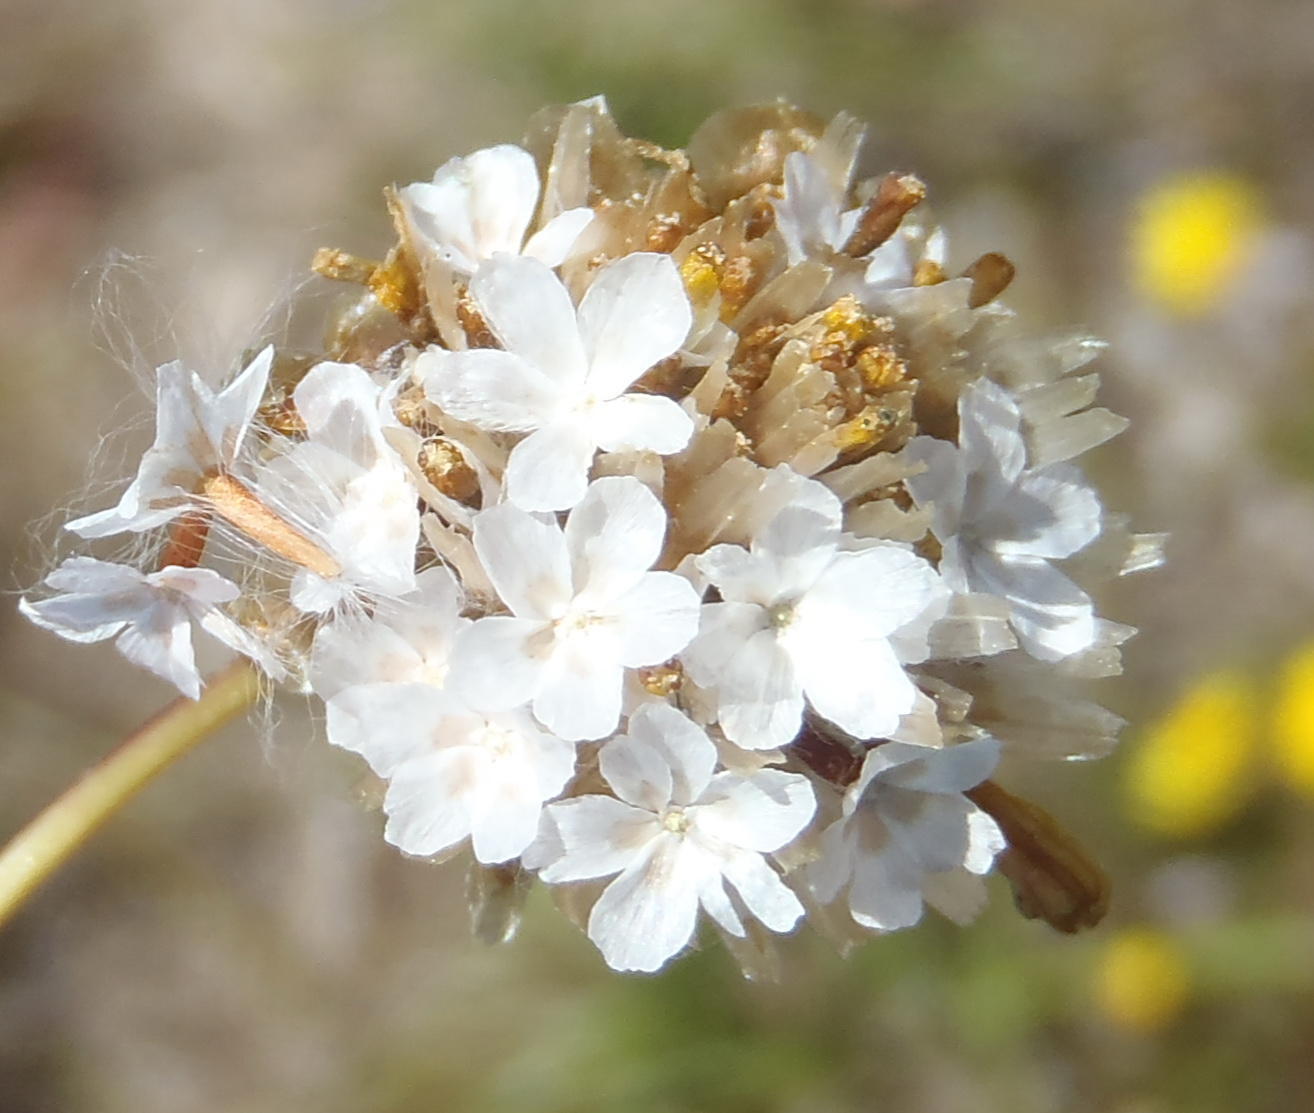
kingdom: Plantae
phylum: Tracheophyta
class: Magnoliopsida
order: Asterales
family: Asteraceae
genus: Ursinia
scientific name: Ursinia trifida
